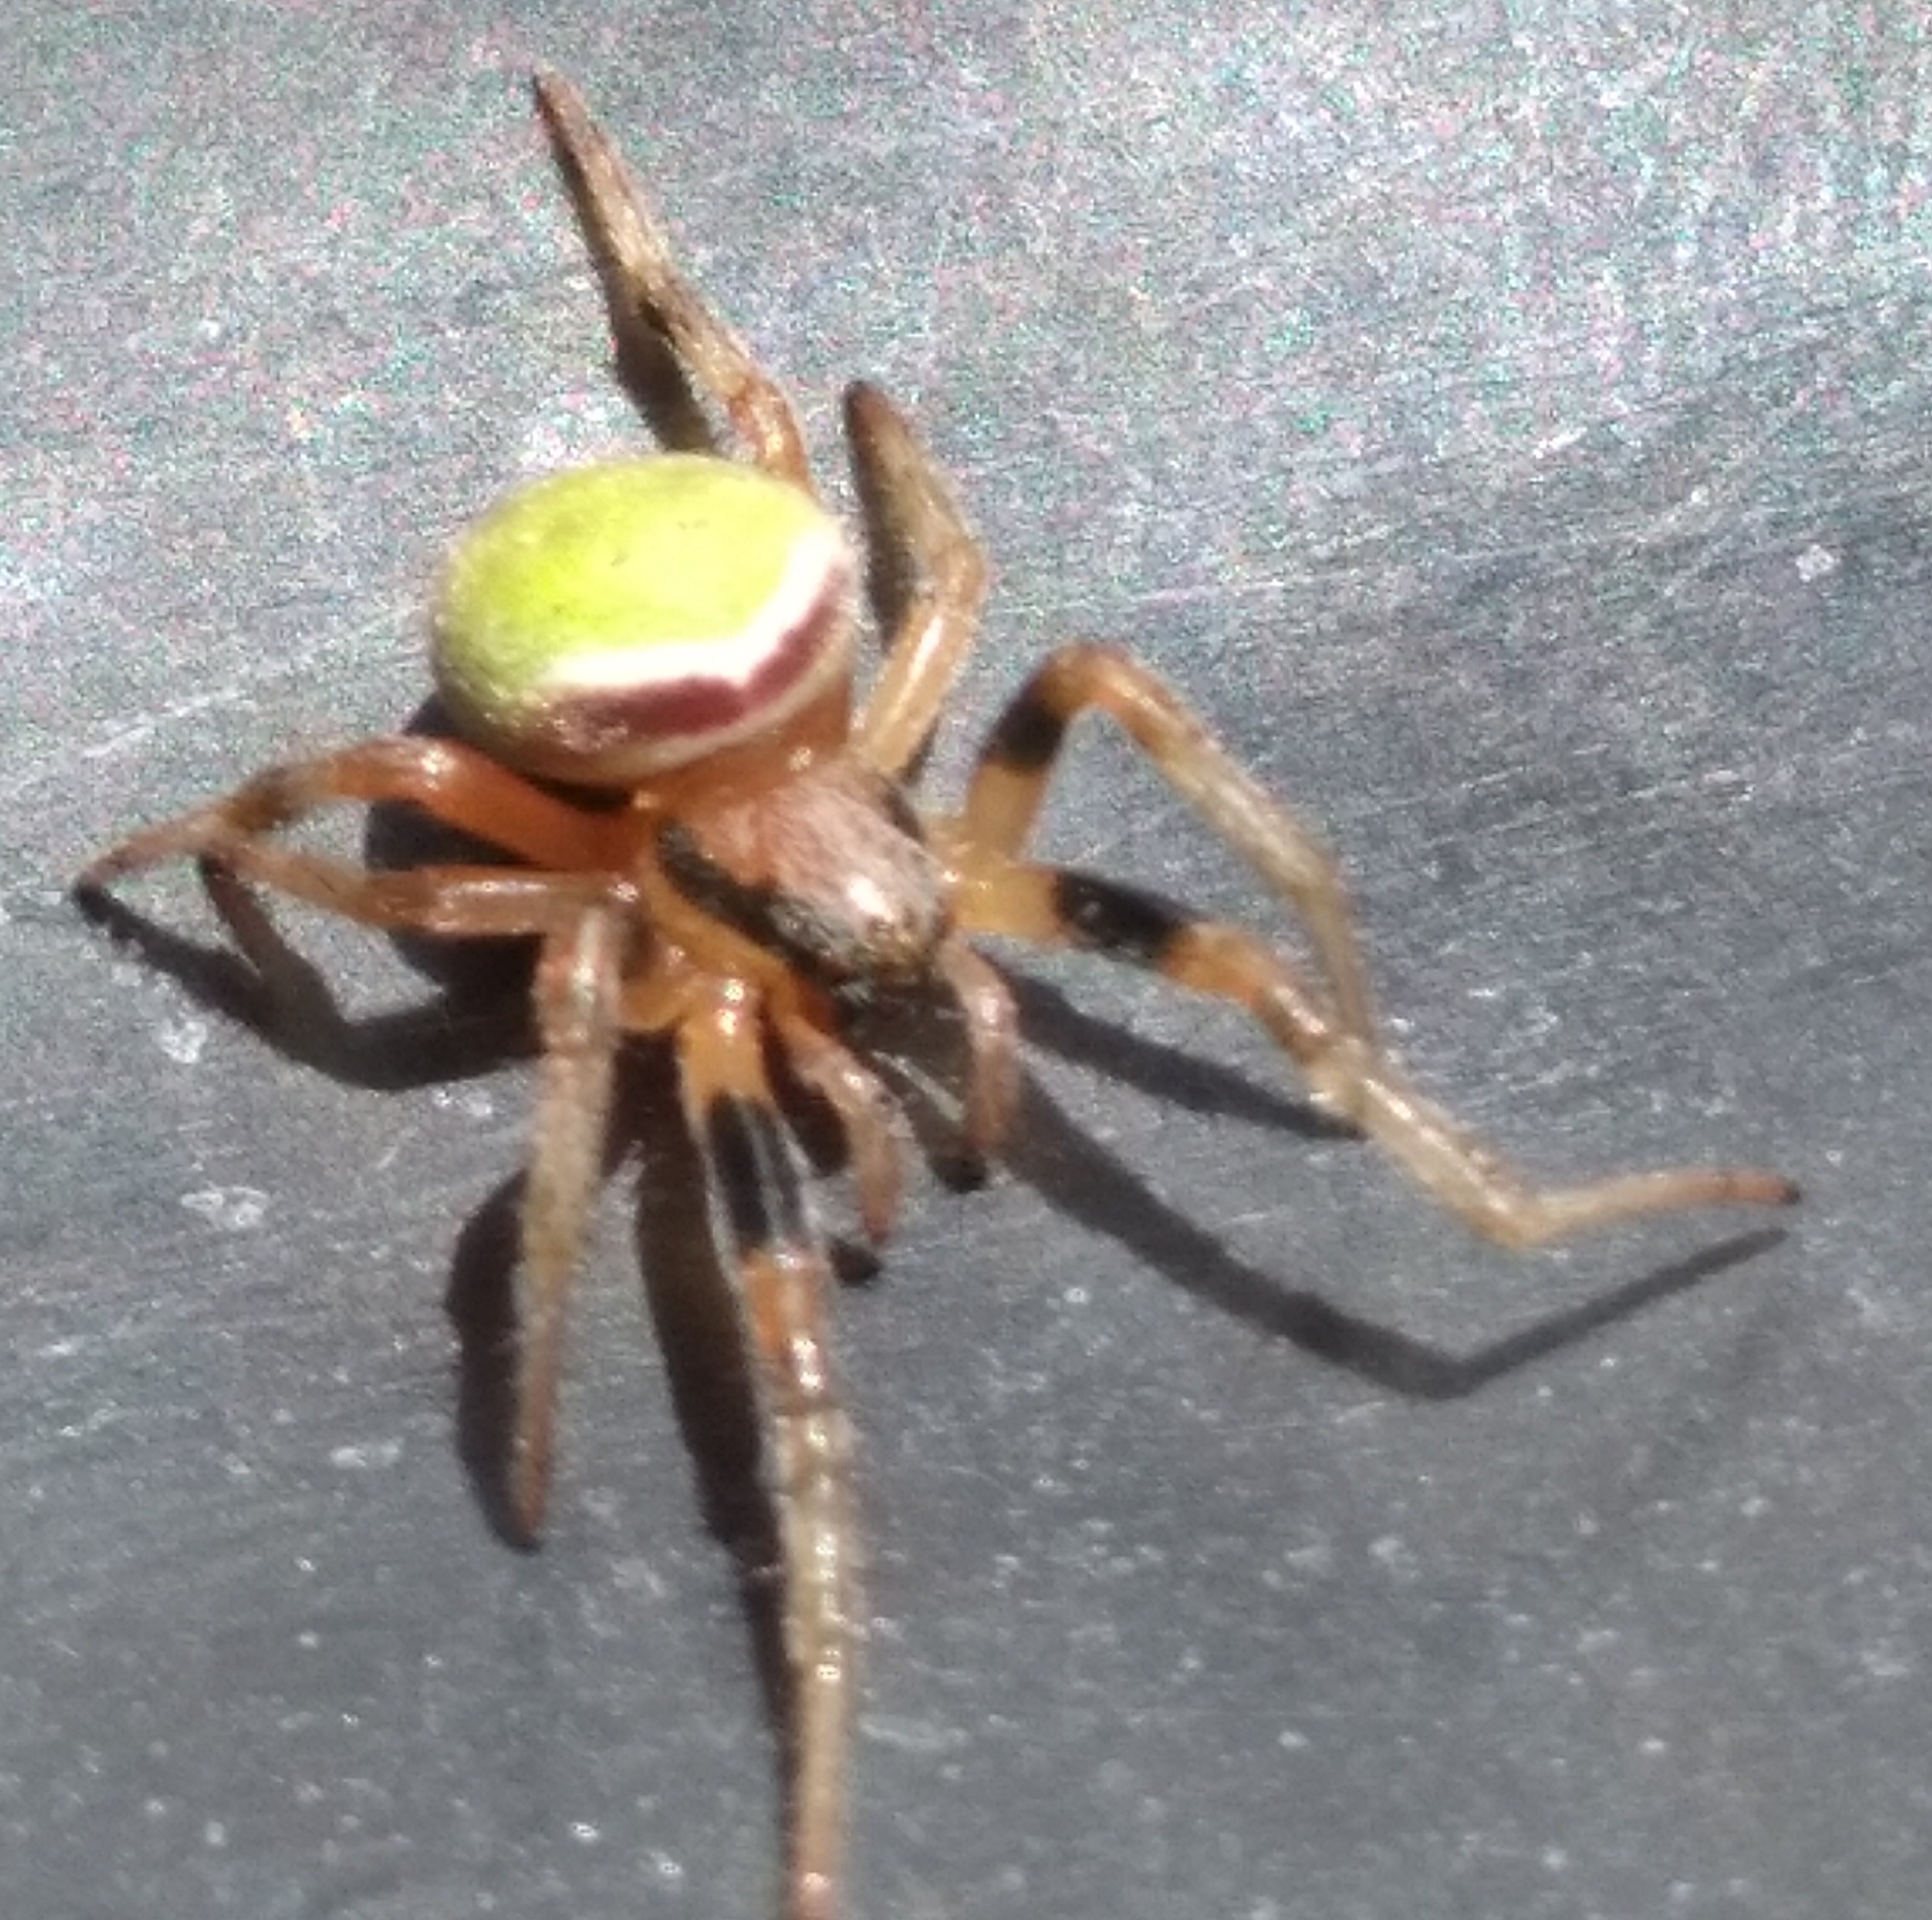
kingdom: Animalia
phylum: Arthropoda
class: Arachnida
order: Araneae
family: Araneidae
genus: Araneus
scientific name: Araneus lathyrinus
